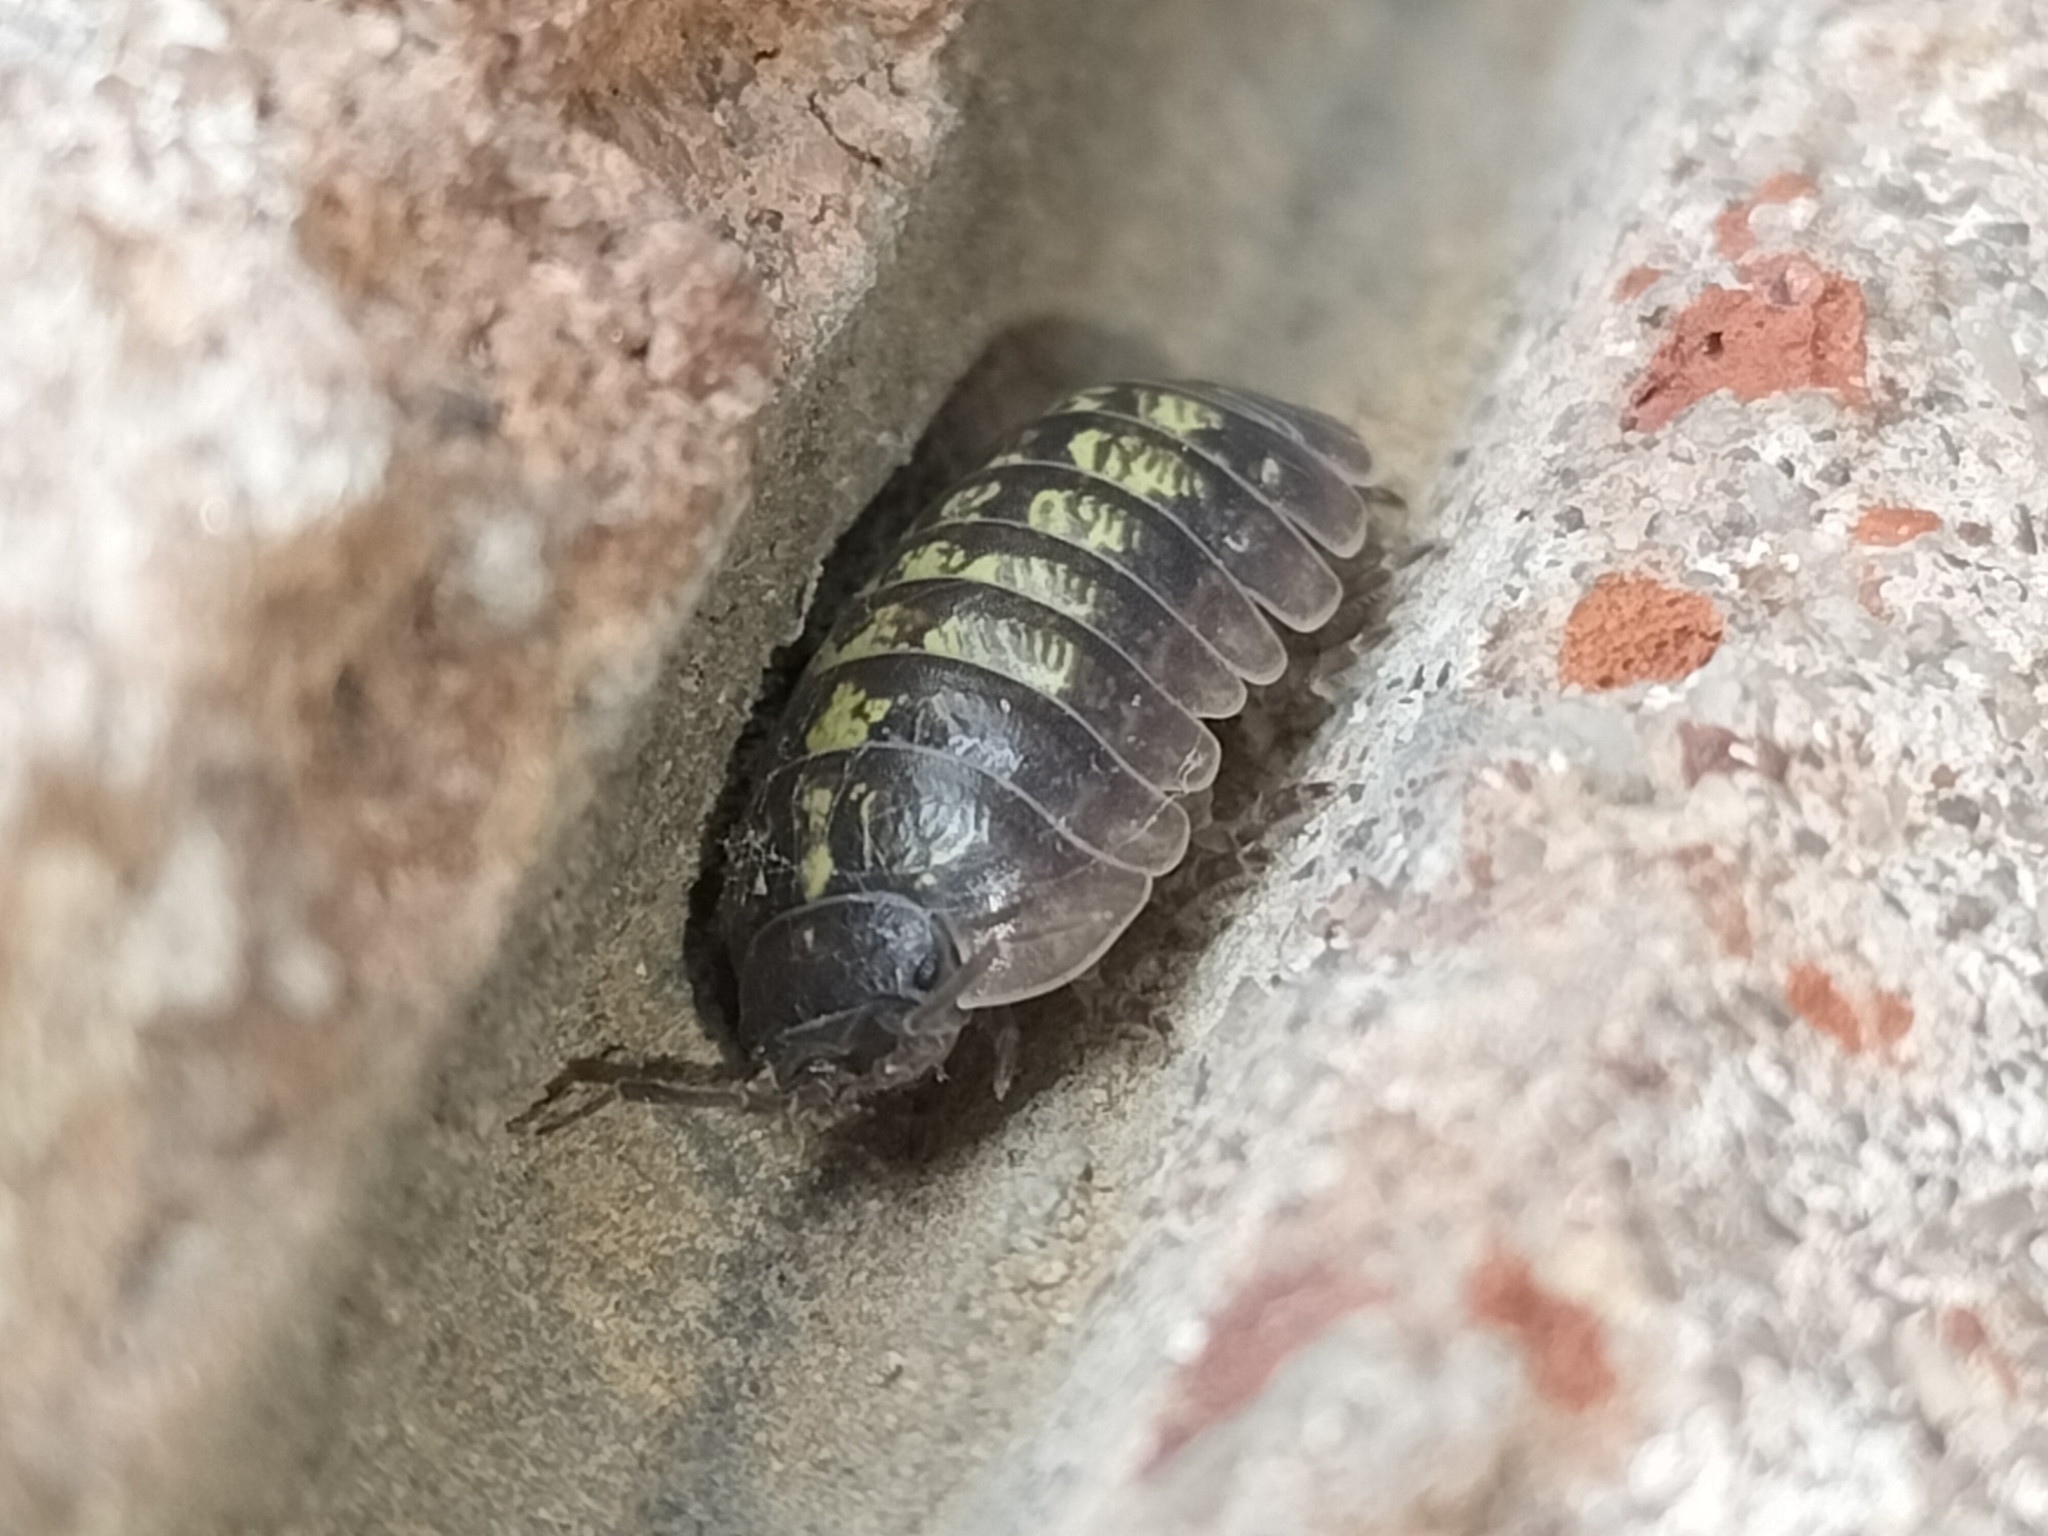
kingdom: Animalia
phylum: Arthropoda
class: Malacostraca
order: Isopoda
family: Armadillidiidae
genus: Armadillidium
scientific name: Armadillidium vulgare
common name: Common pill woodlouse
